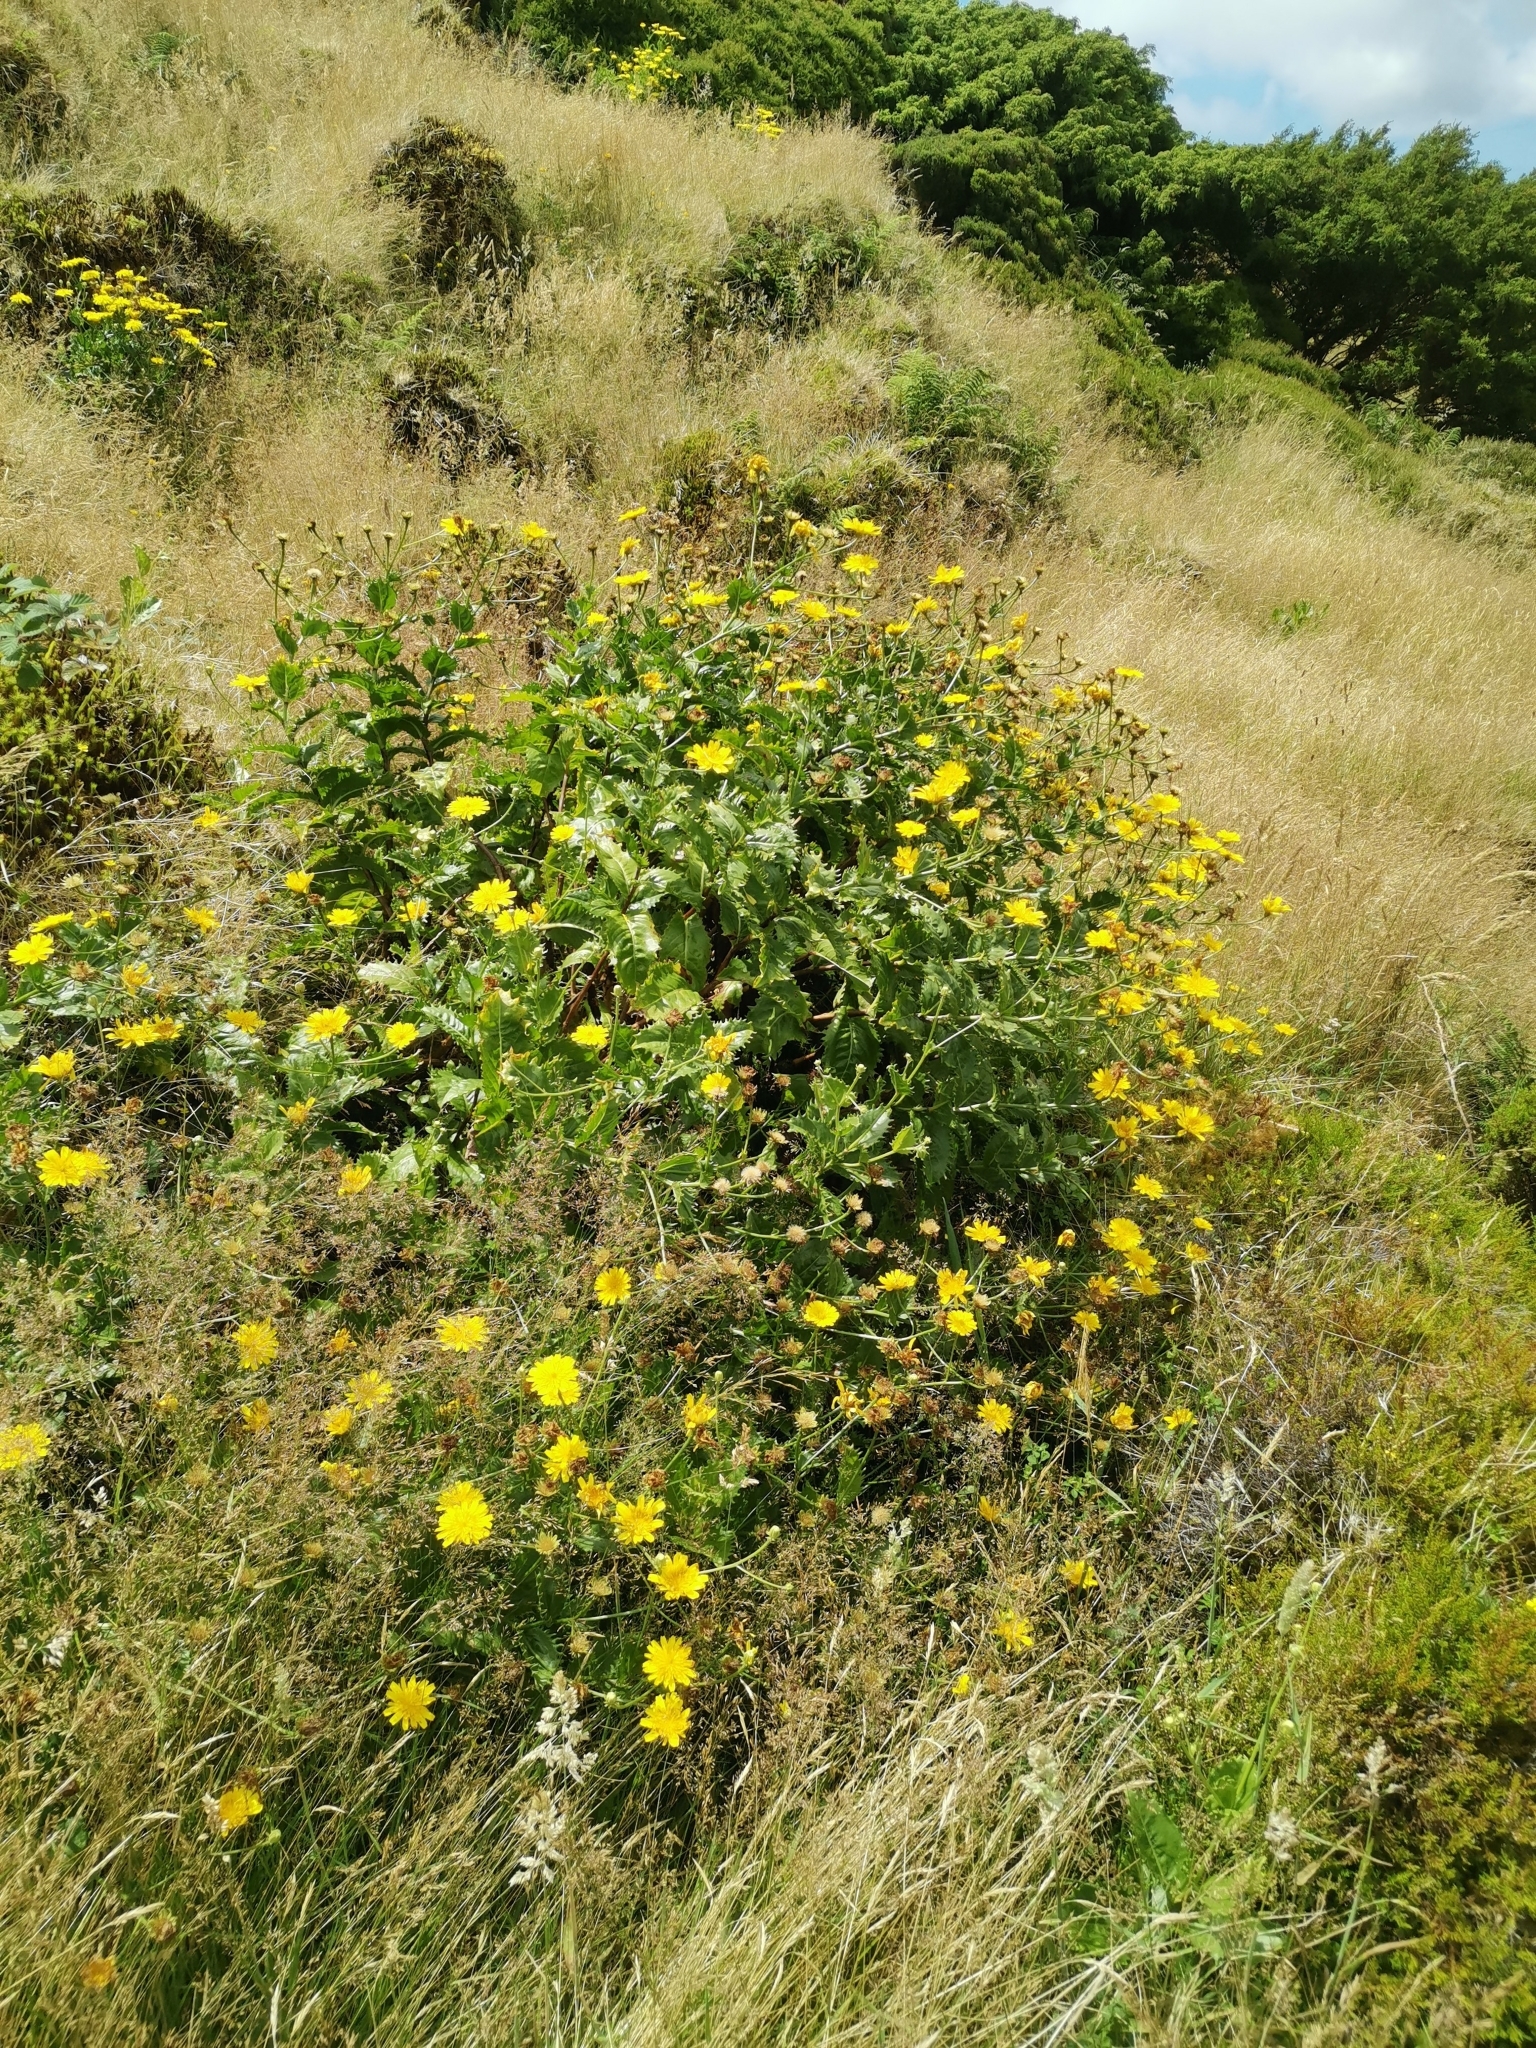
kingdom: Plantae
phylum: Tracheophyta
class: Magnoliopsida
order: Asterales
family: Asteraceae
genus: Tolpis
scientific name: Tolpis azorica
